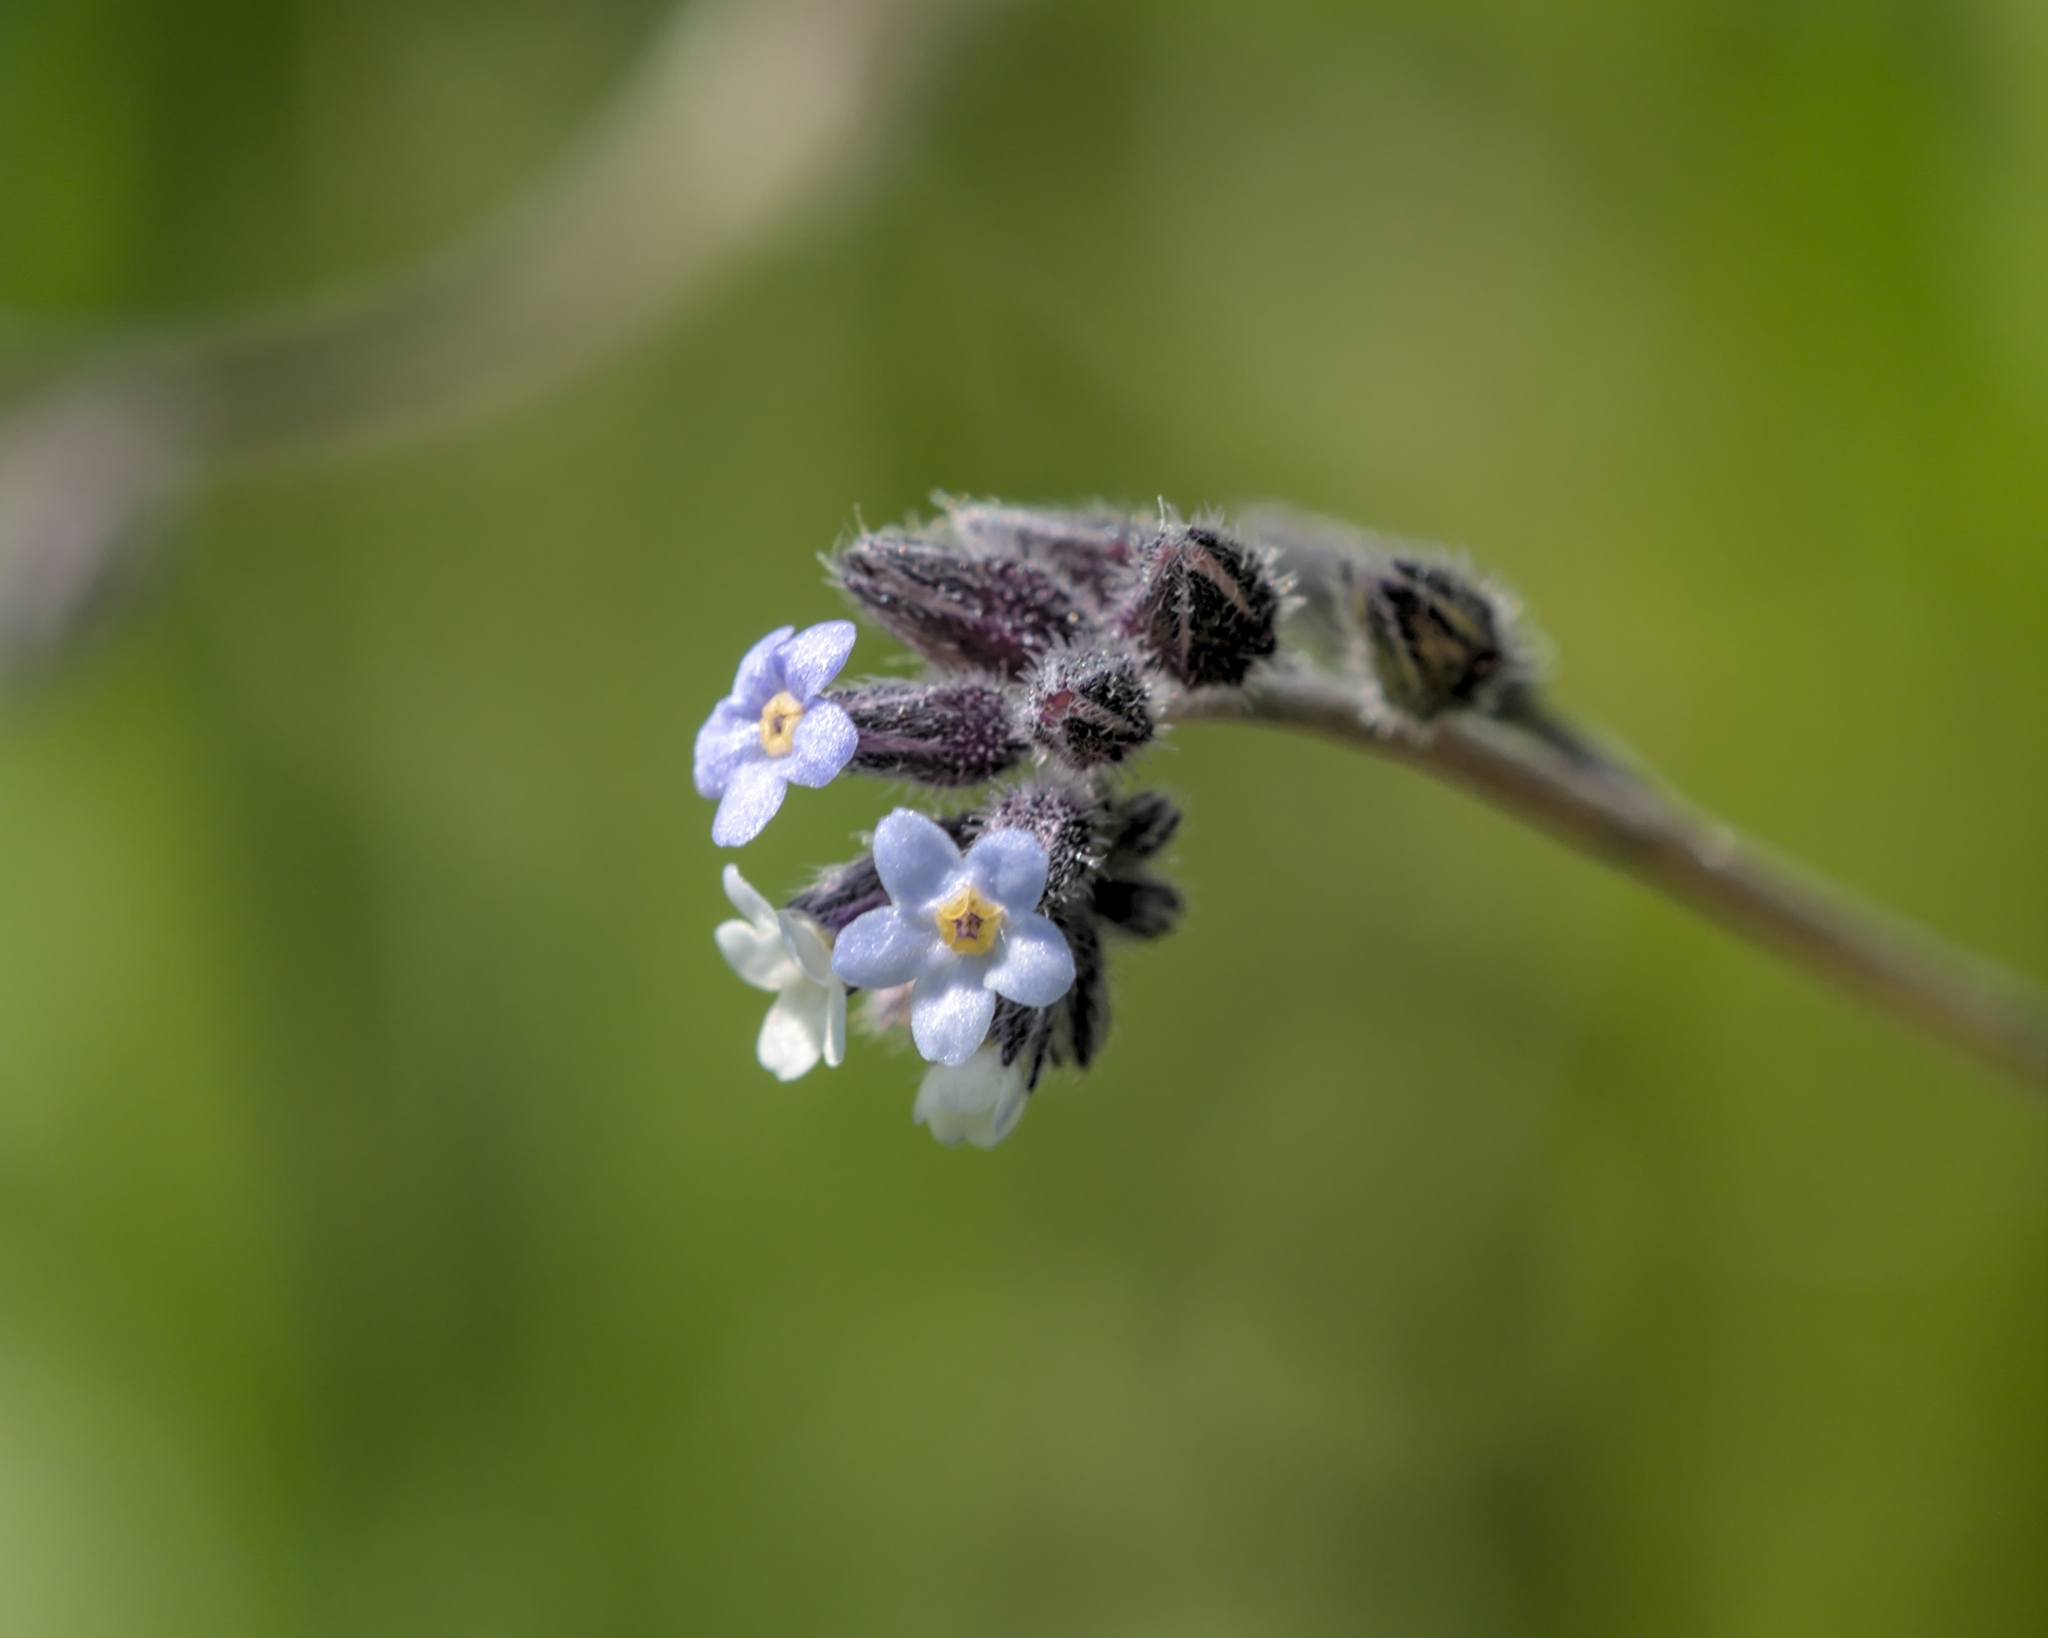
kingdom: Plantae
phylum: Tracheophyta
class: Magnoliopsida
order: Boraginales
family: Boraginaceae
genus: Myosotis
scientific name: Myosotis discolor
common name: Changing forget-me-not
